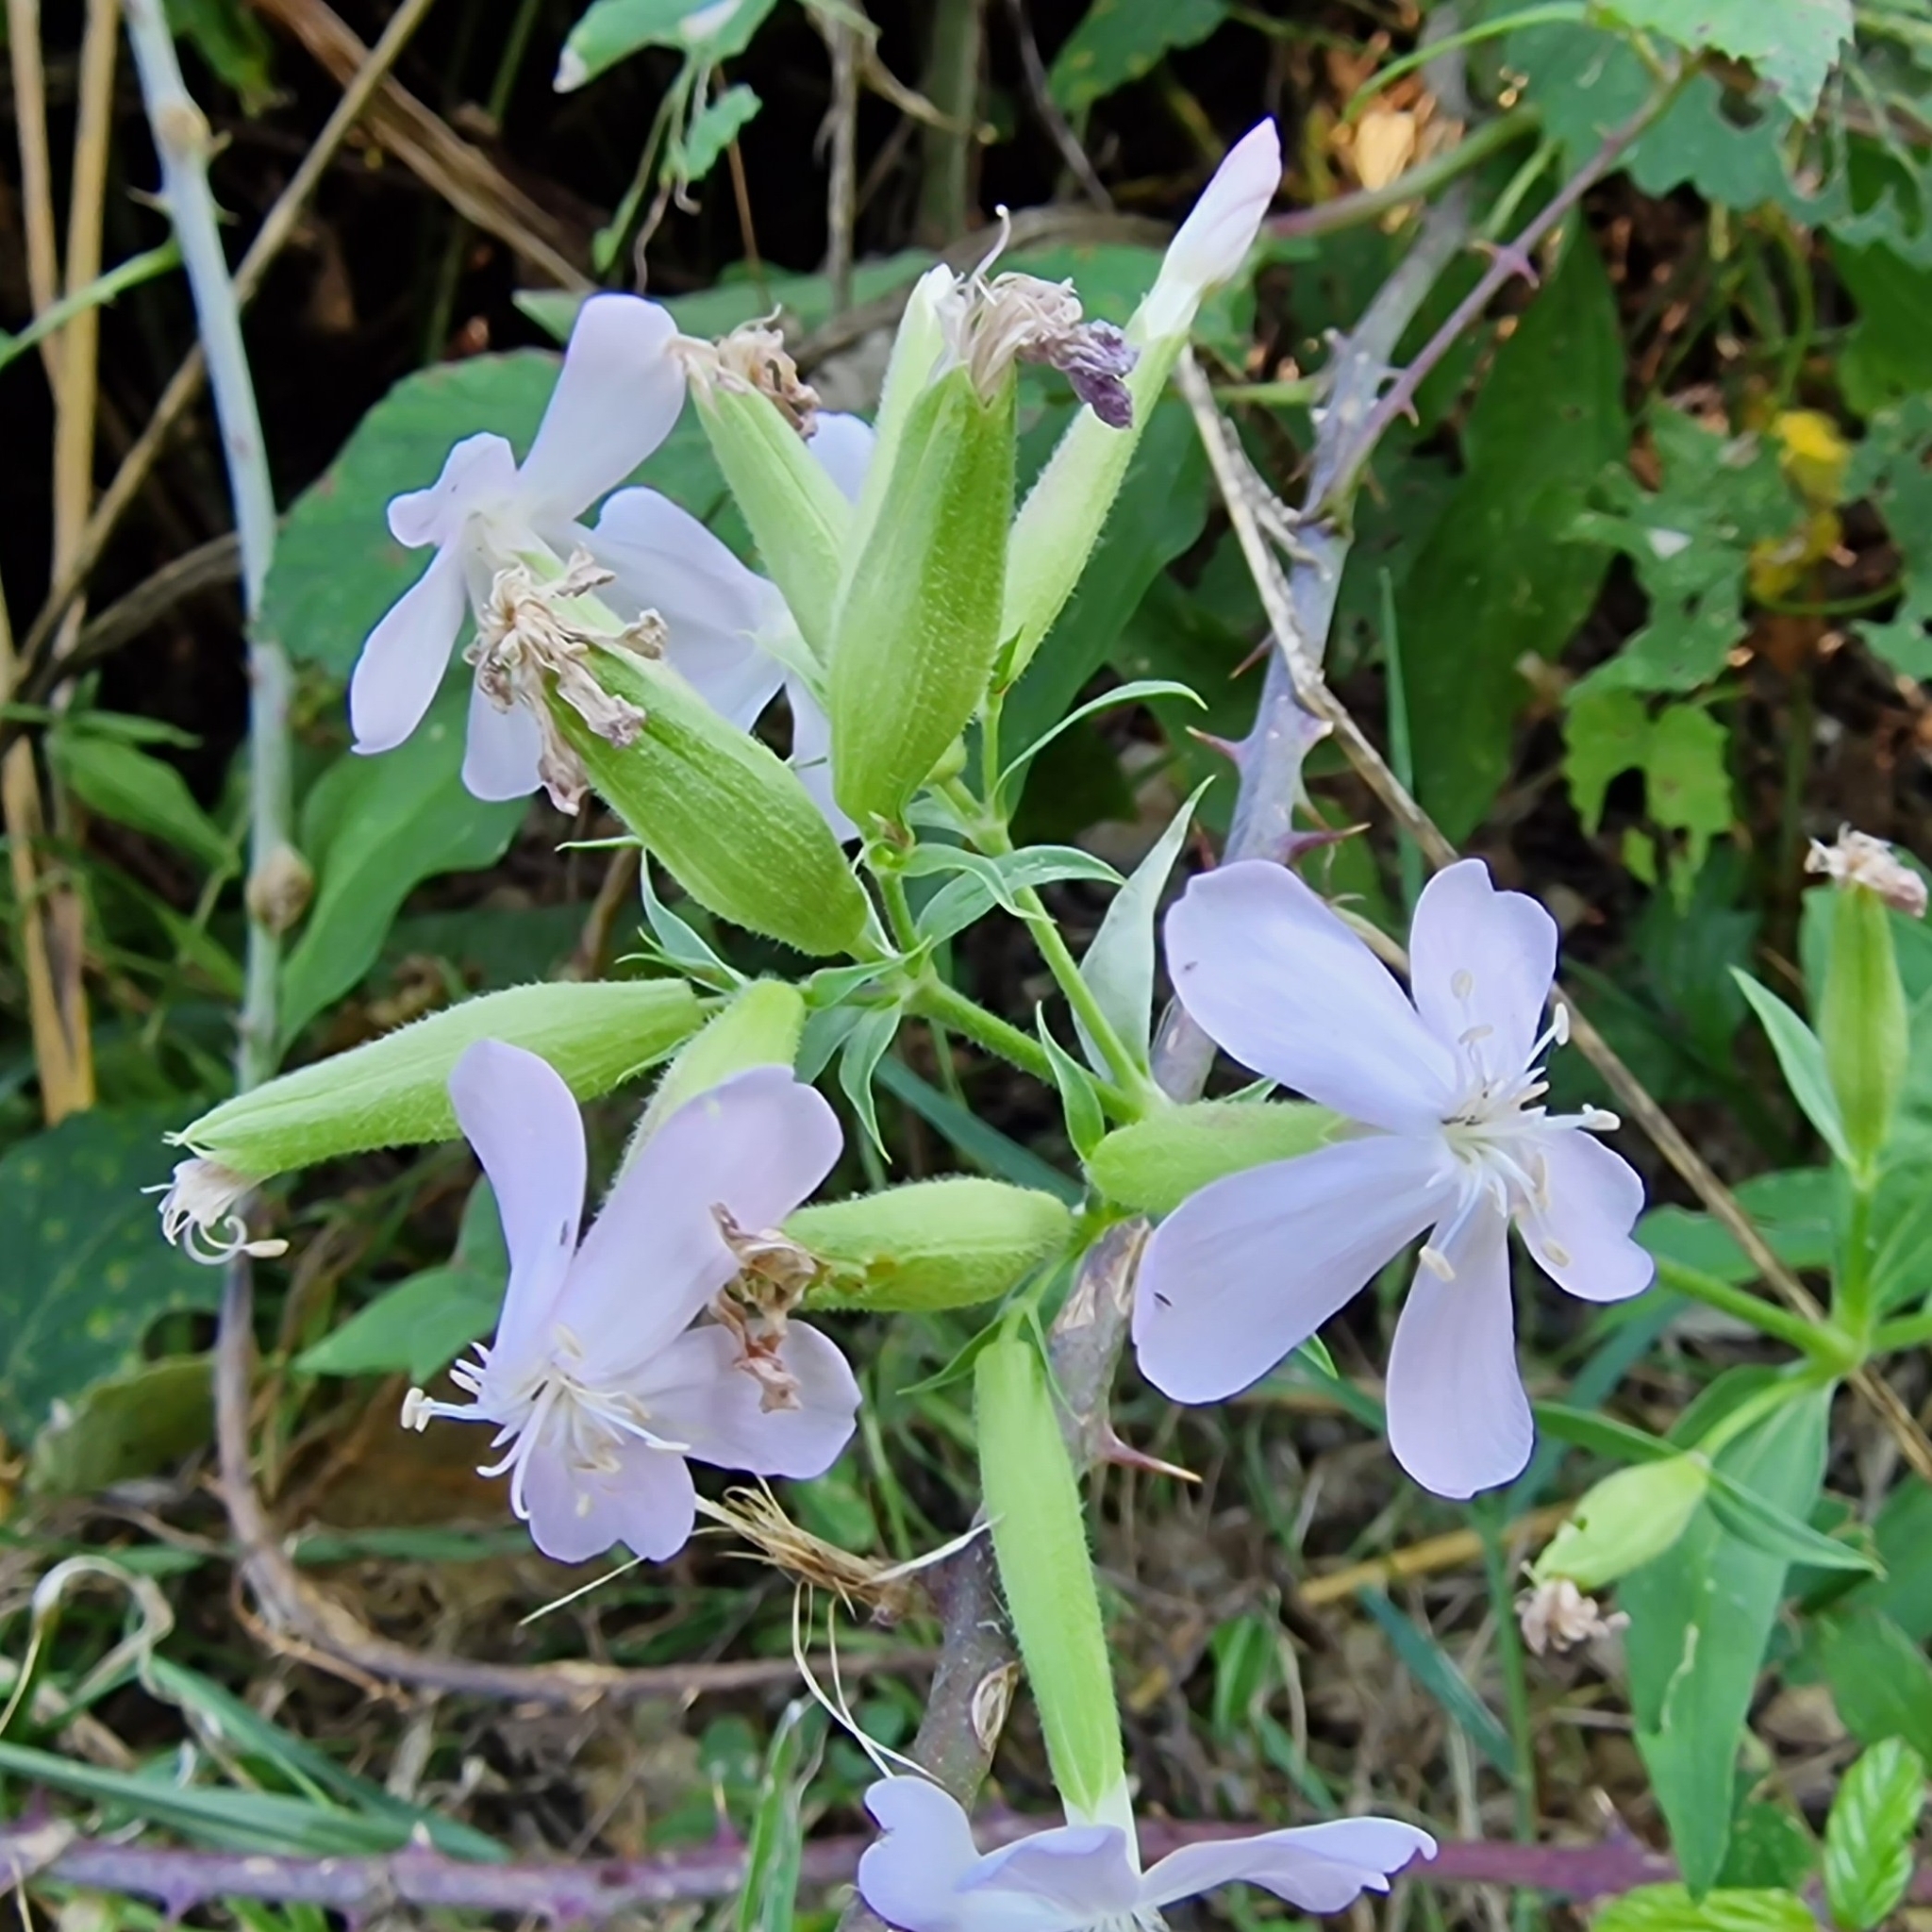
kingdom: Plantae
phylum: Tracheophyta
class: Magnoliopsida
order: Caryophyllales
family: Caryophyllaceae
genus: Saponaria
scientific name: Saponaria officinalis
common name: Soapwort
